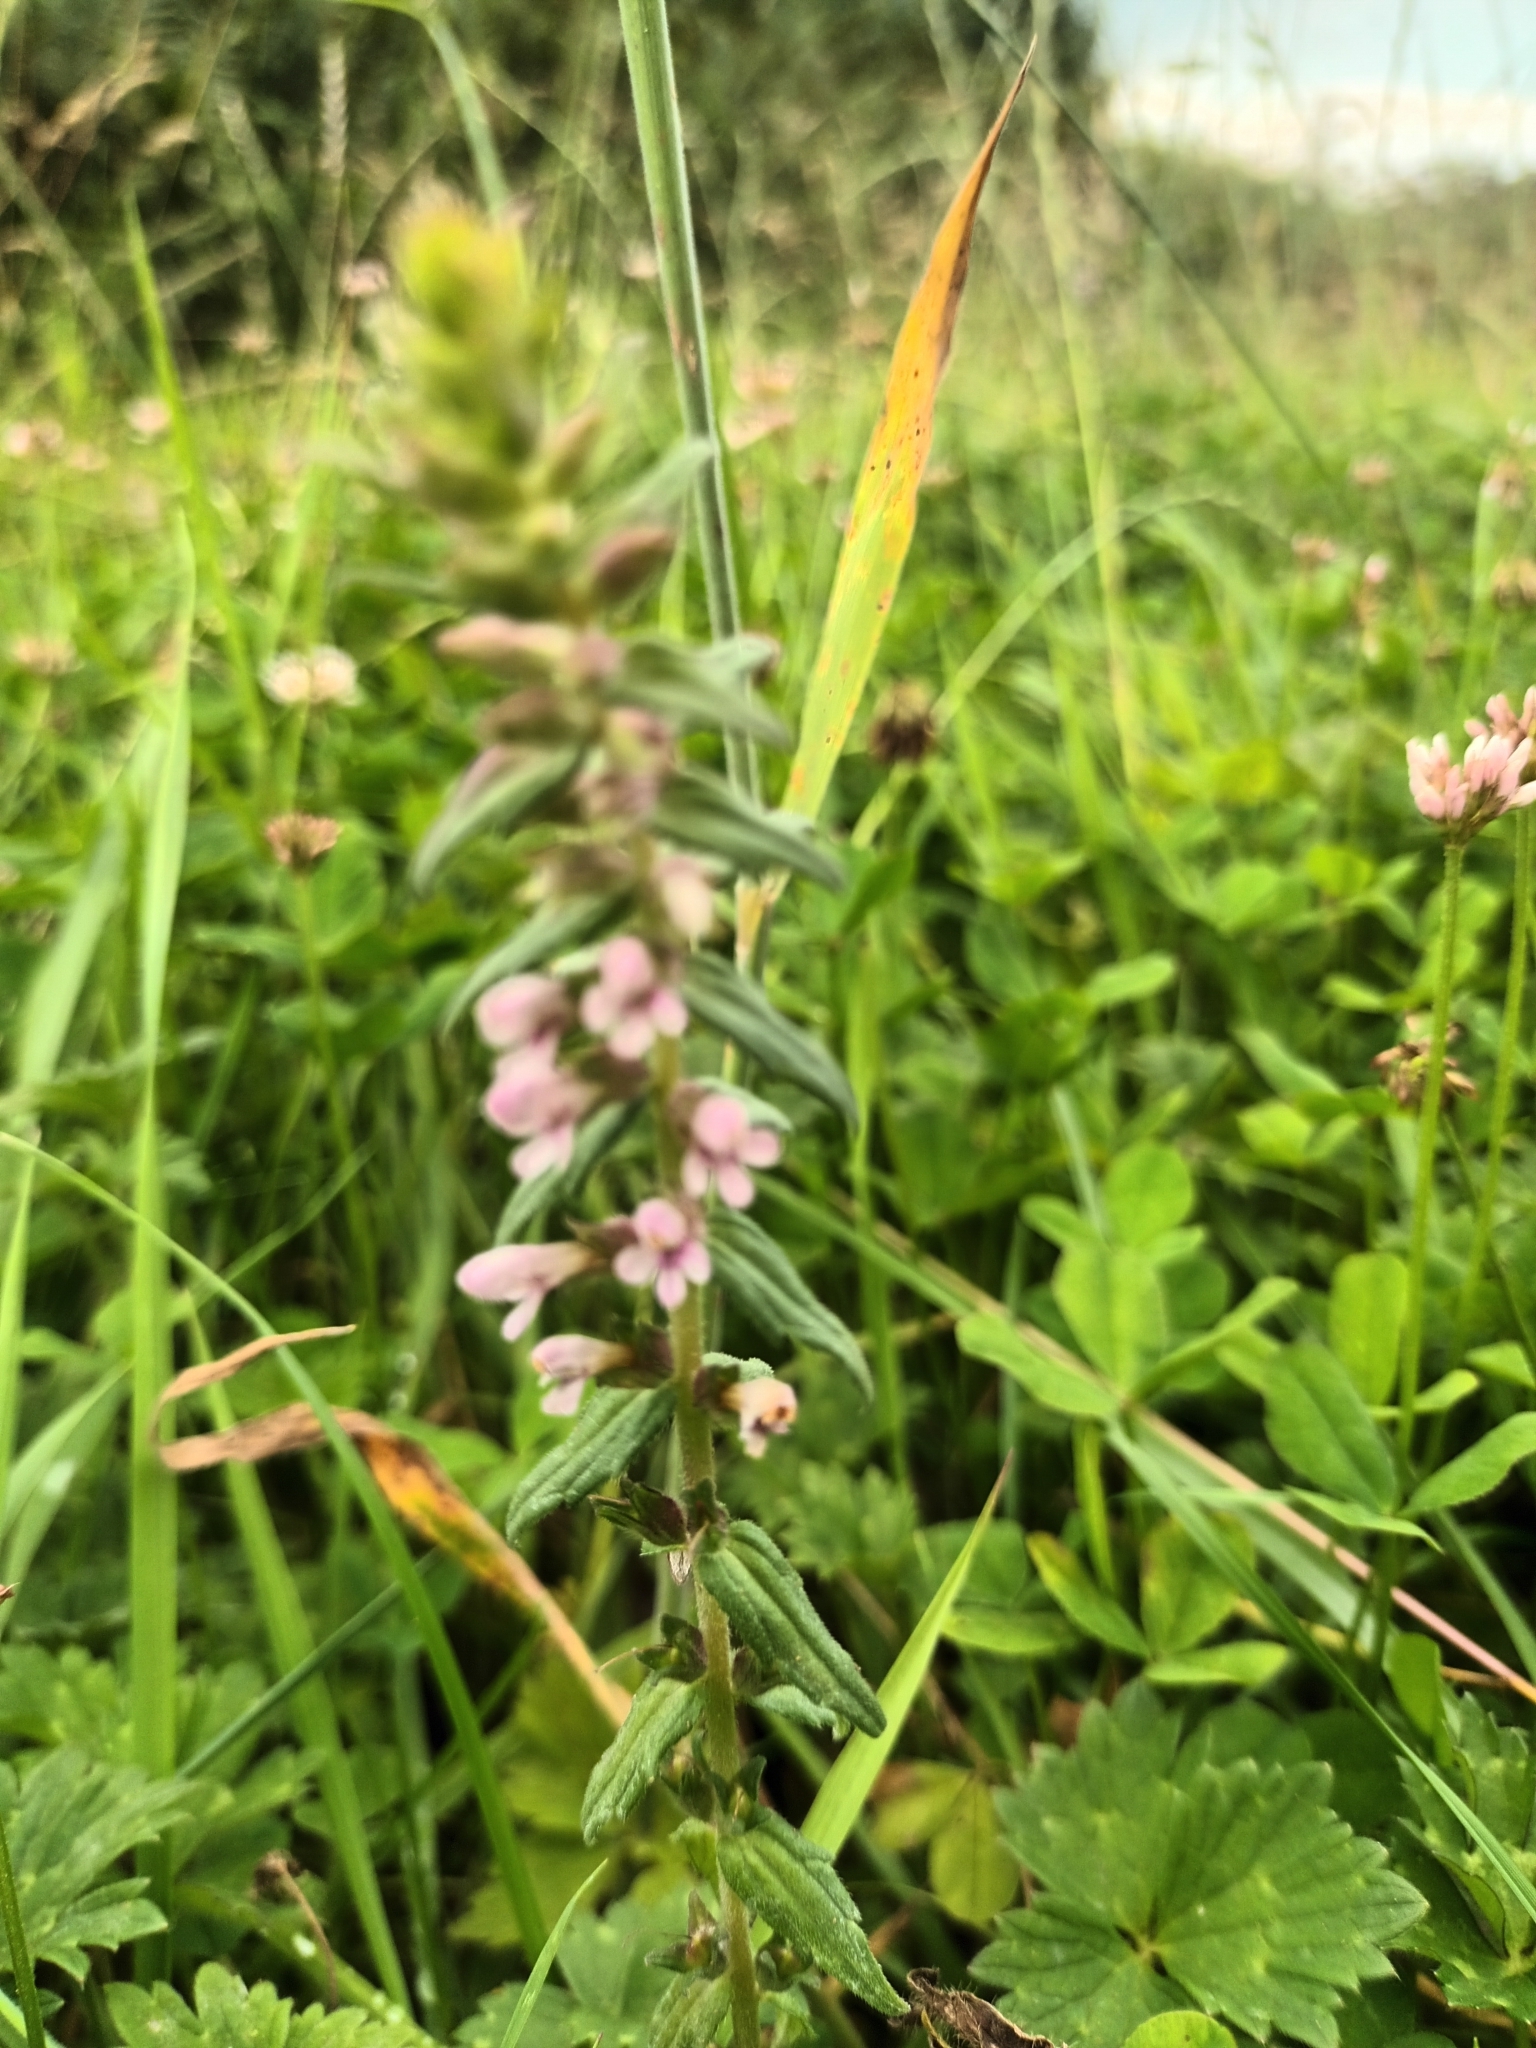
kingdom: Plantae
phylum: Tracheophyta
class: Magnoliopsida
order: Lamiales
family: Orobanchaceae
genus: Odontites
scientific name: Odontites vernus
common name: Red bartsia
